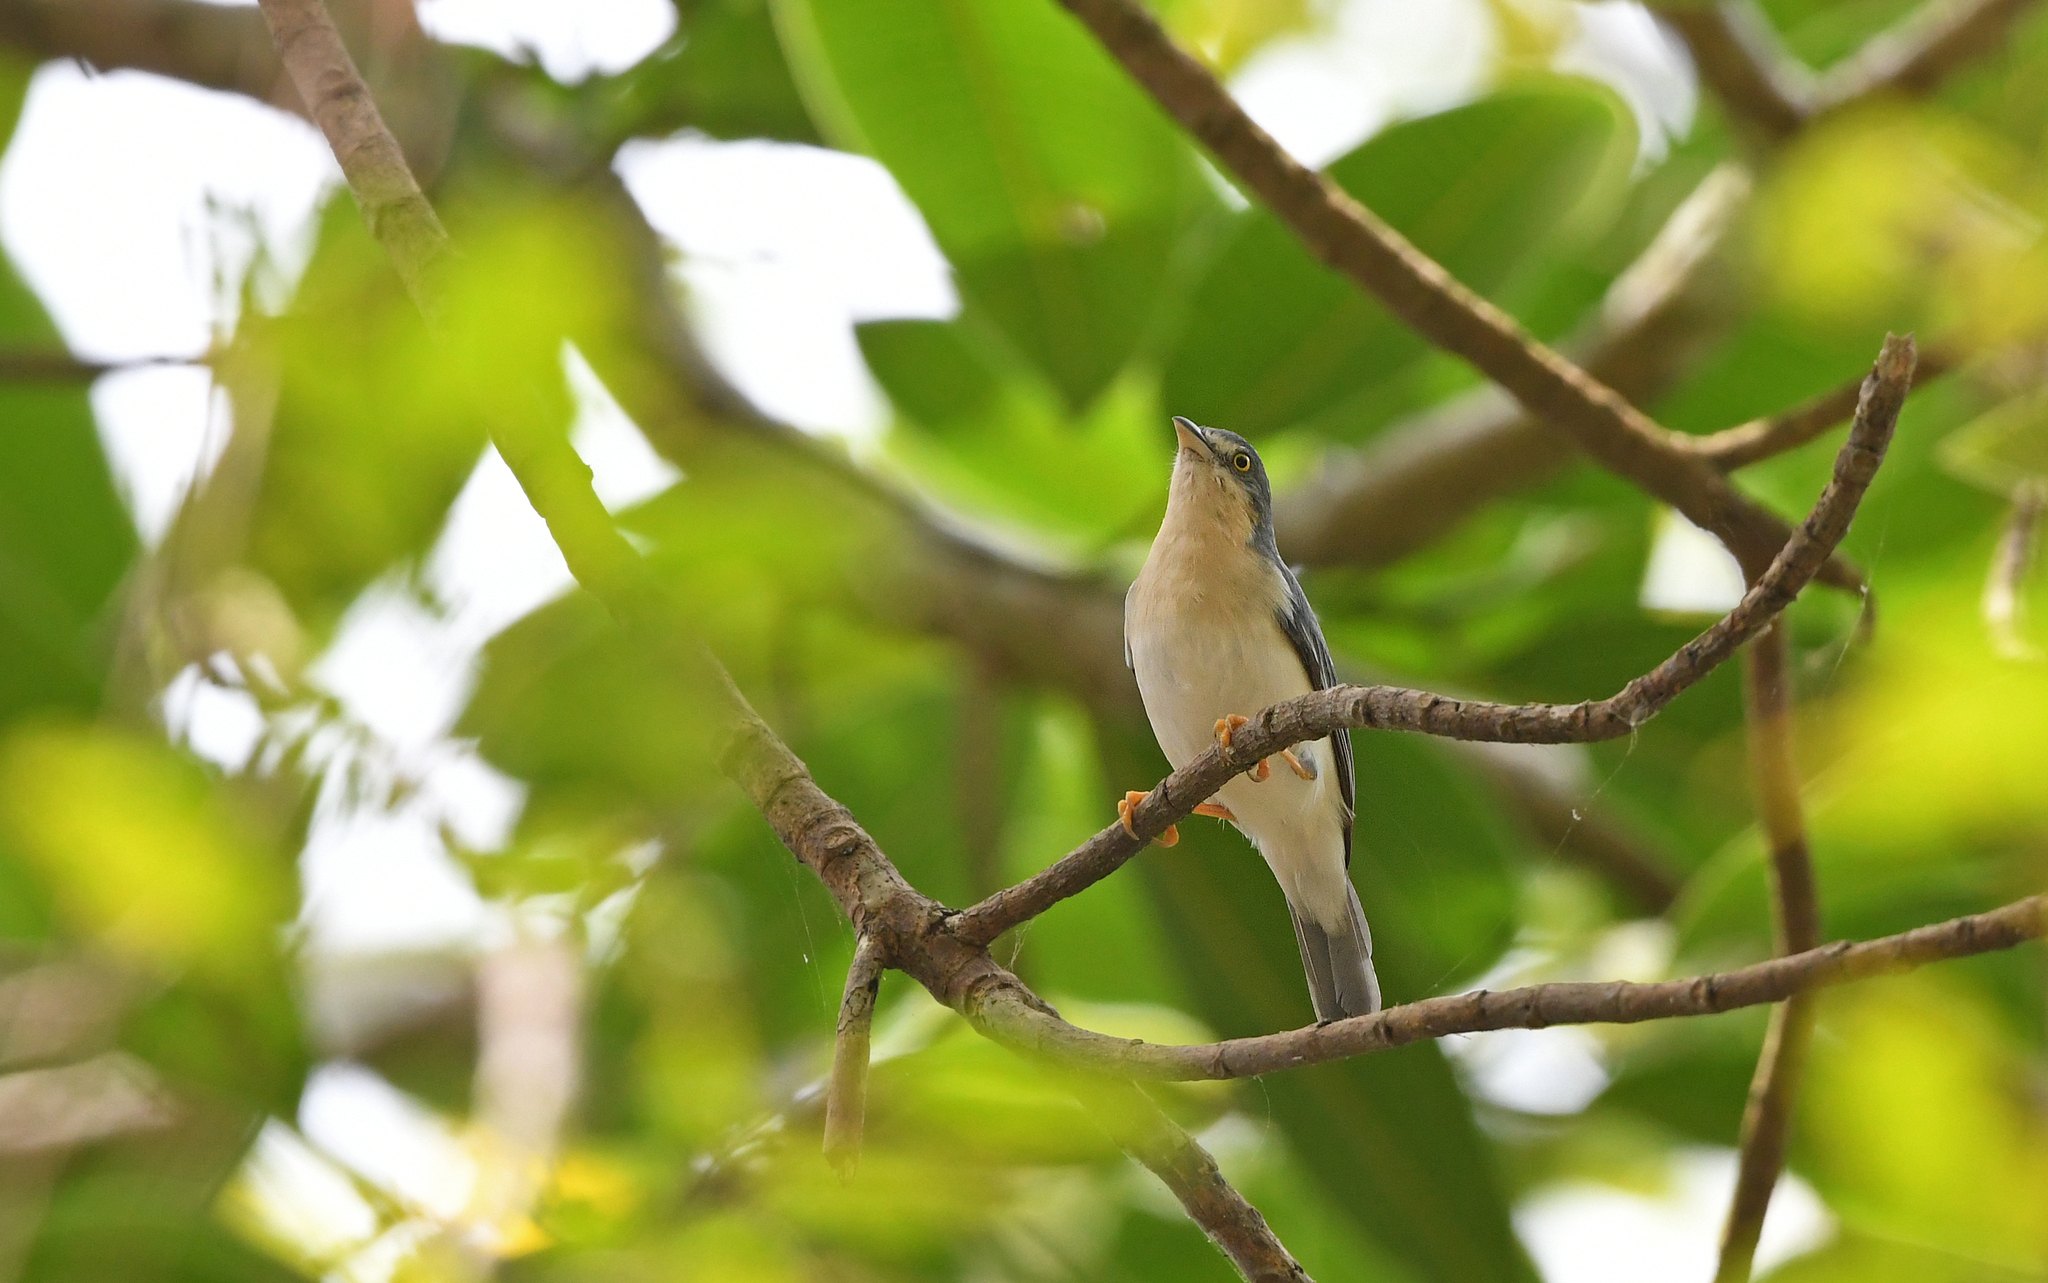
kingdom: Animalia
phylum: Chordata
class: Aves
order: Passeriformes
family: Thraupidae
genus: Nemosia
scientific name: Nemosia pileata
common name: Hooded tanager
